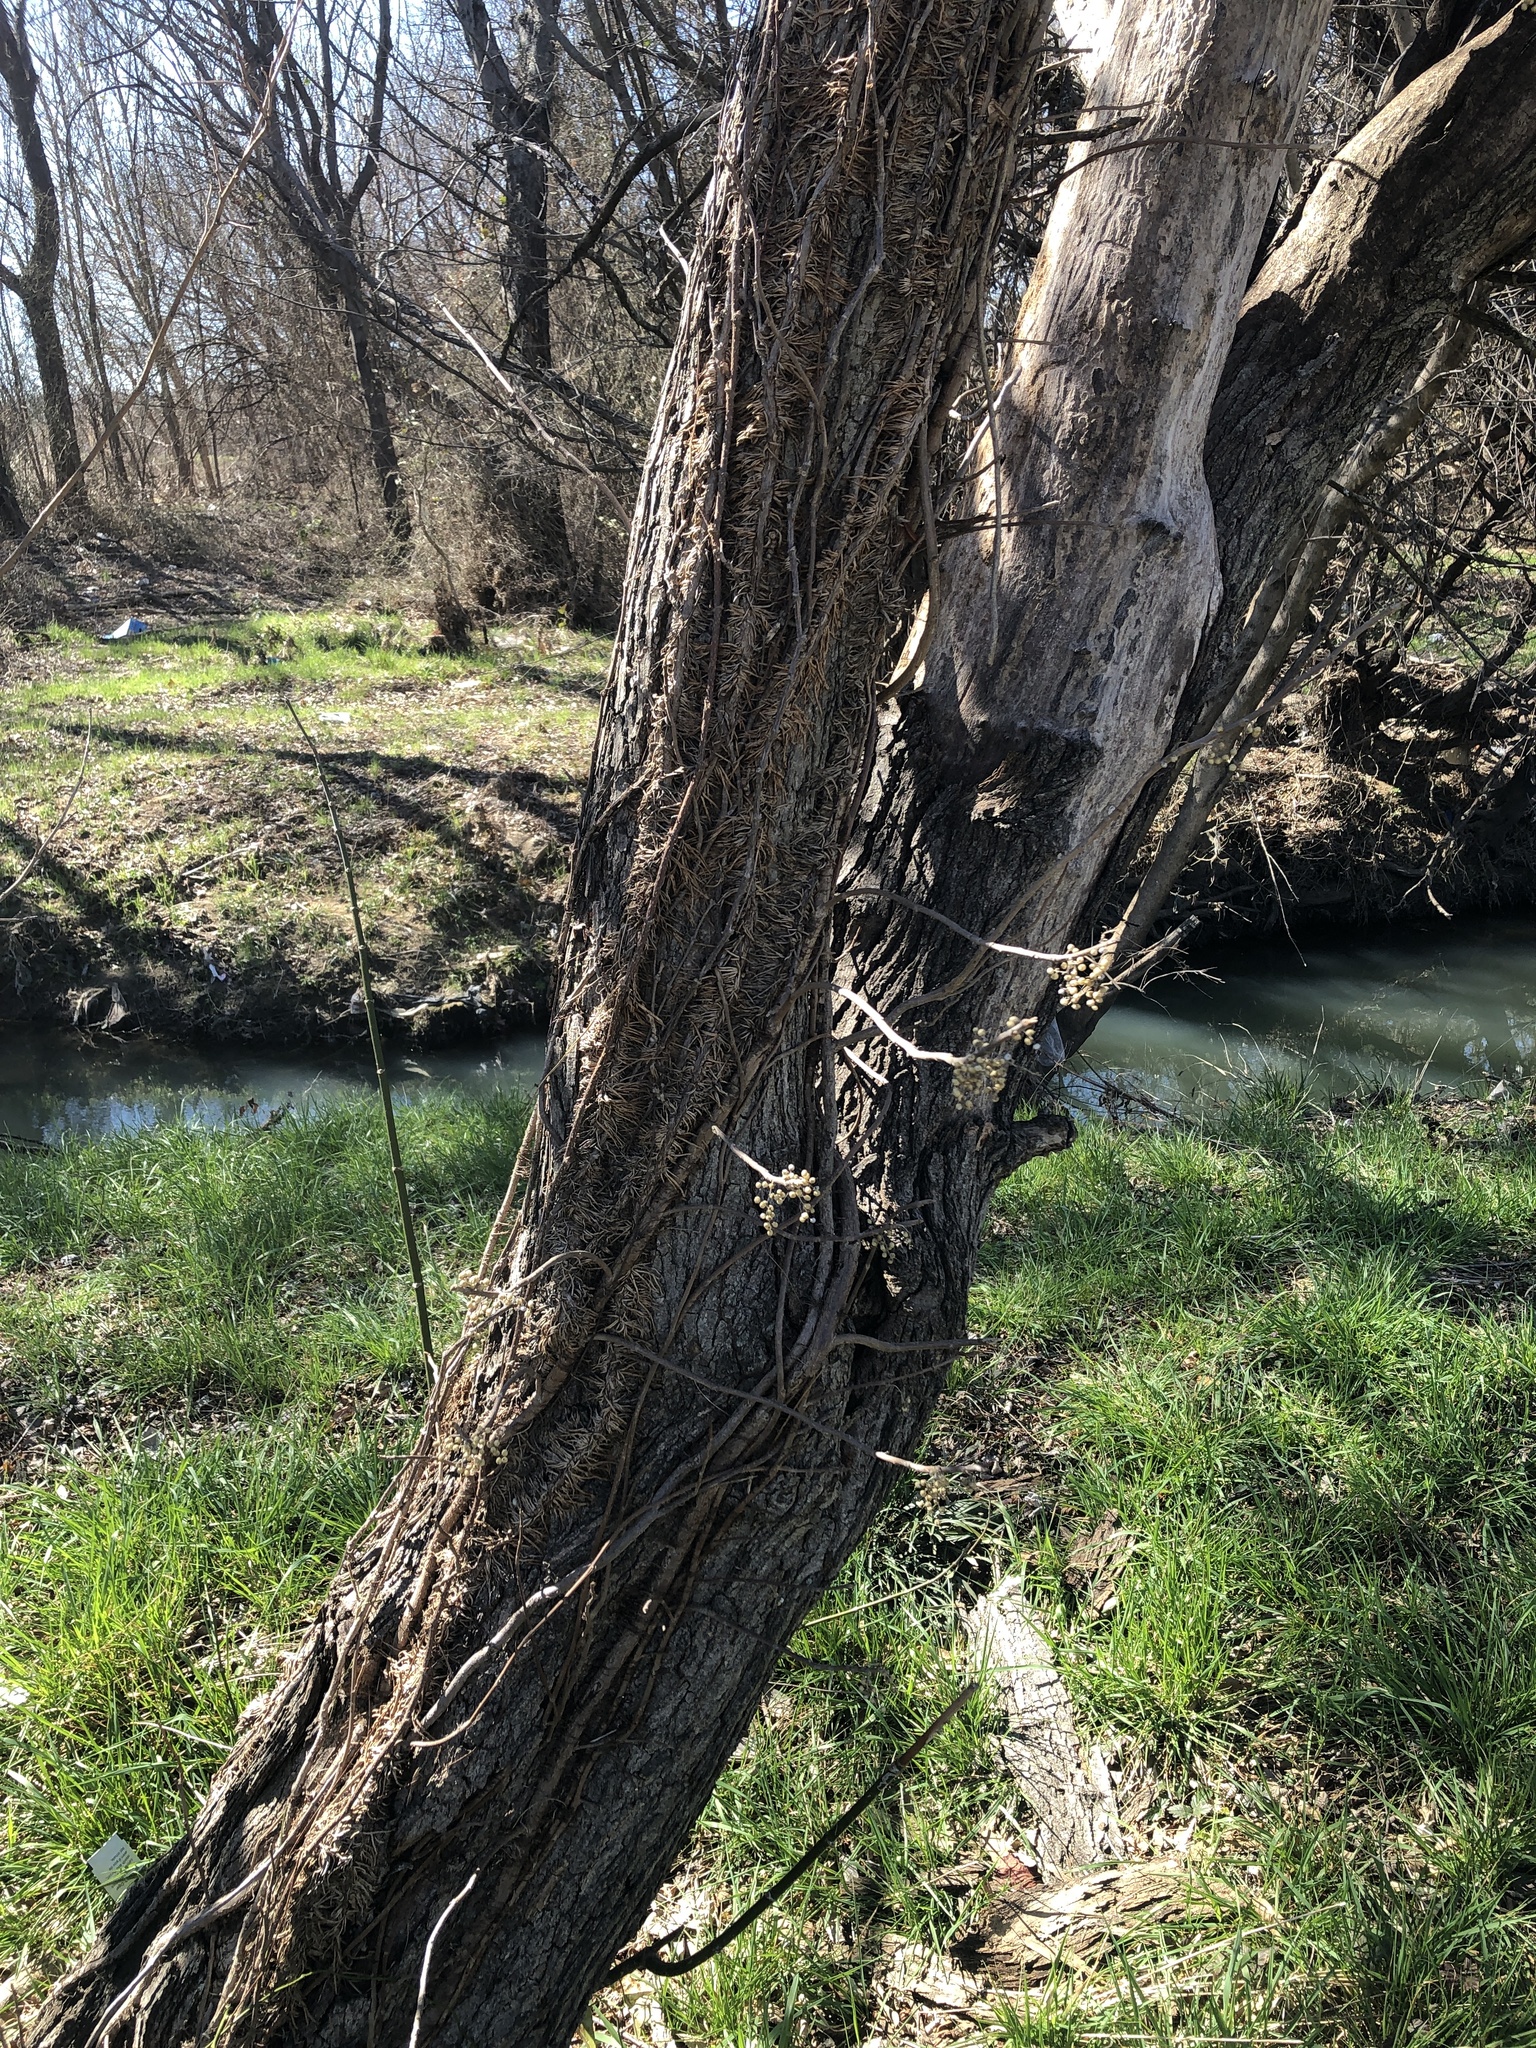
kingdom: Plantae
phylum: Tracheophyta
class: Magnoliopsida
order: Sapindales
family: Anacardiaceae
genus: Toxicodendron
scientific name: Toxicodendron radicans
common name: Poison ivy
